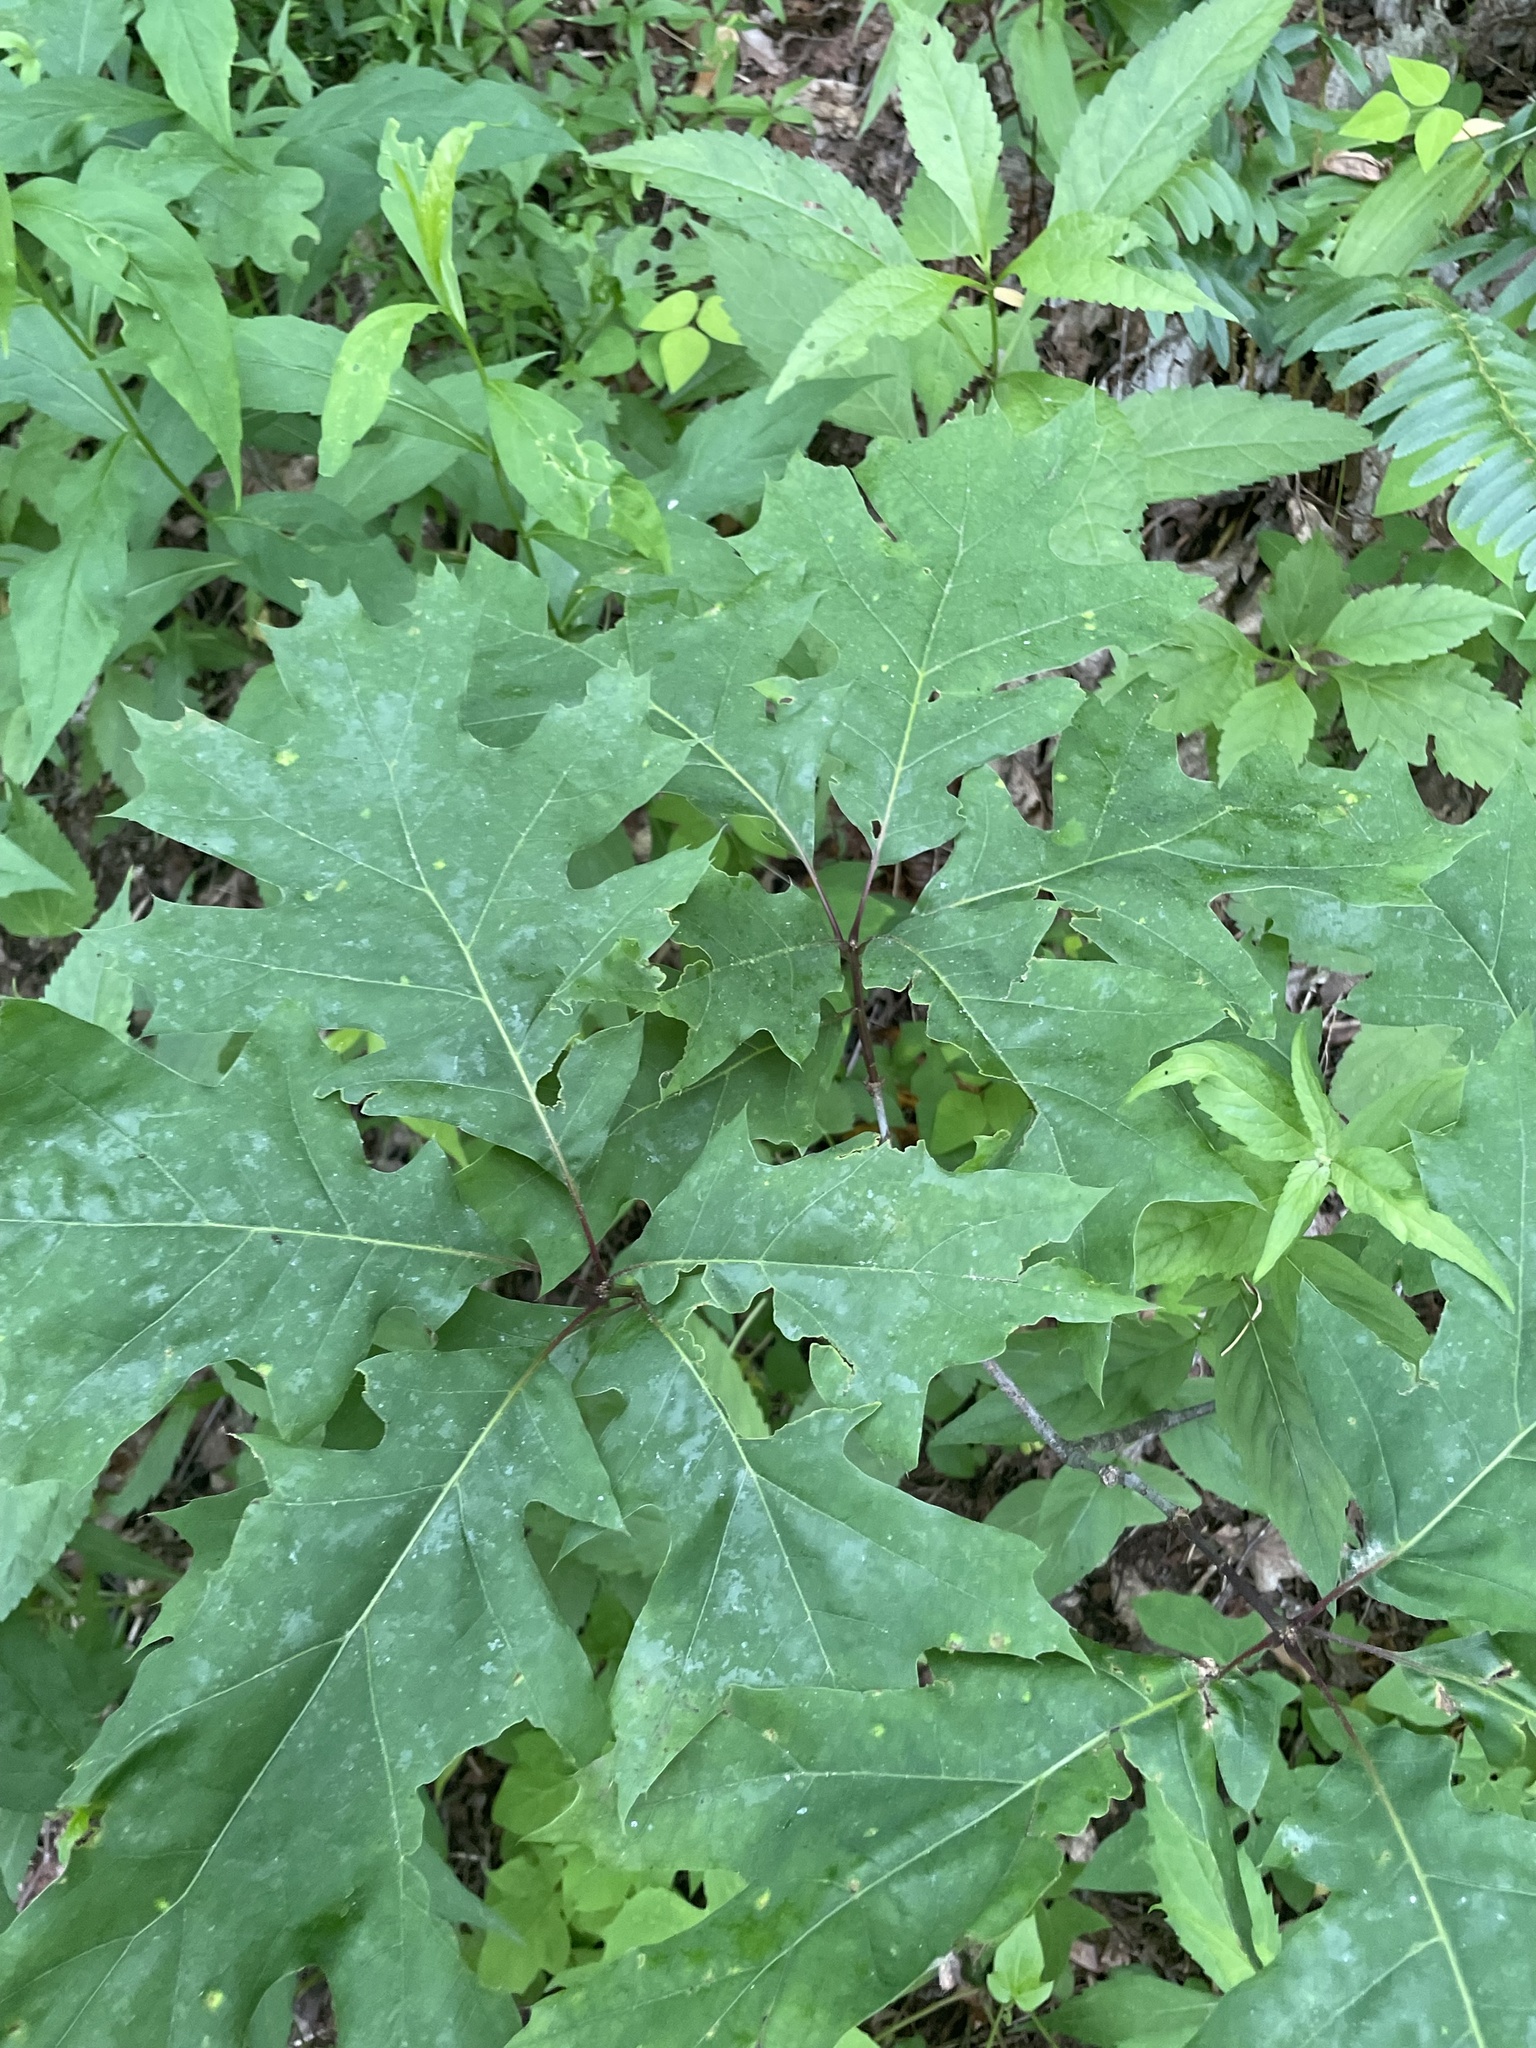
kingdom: Plantae
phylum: Tracheophyta
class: Magnoliopsida
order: Fagales
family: Fagaceae
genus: Quercus
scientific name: Quercus rubra
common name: Red oak
